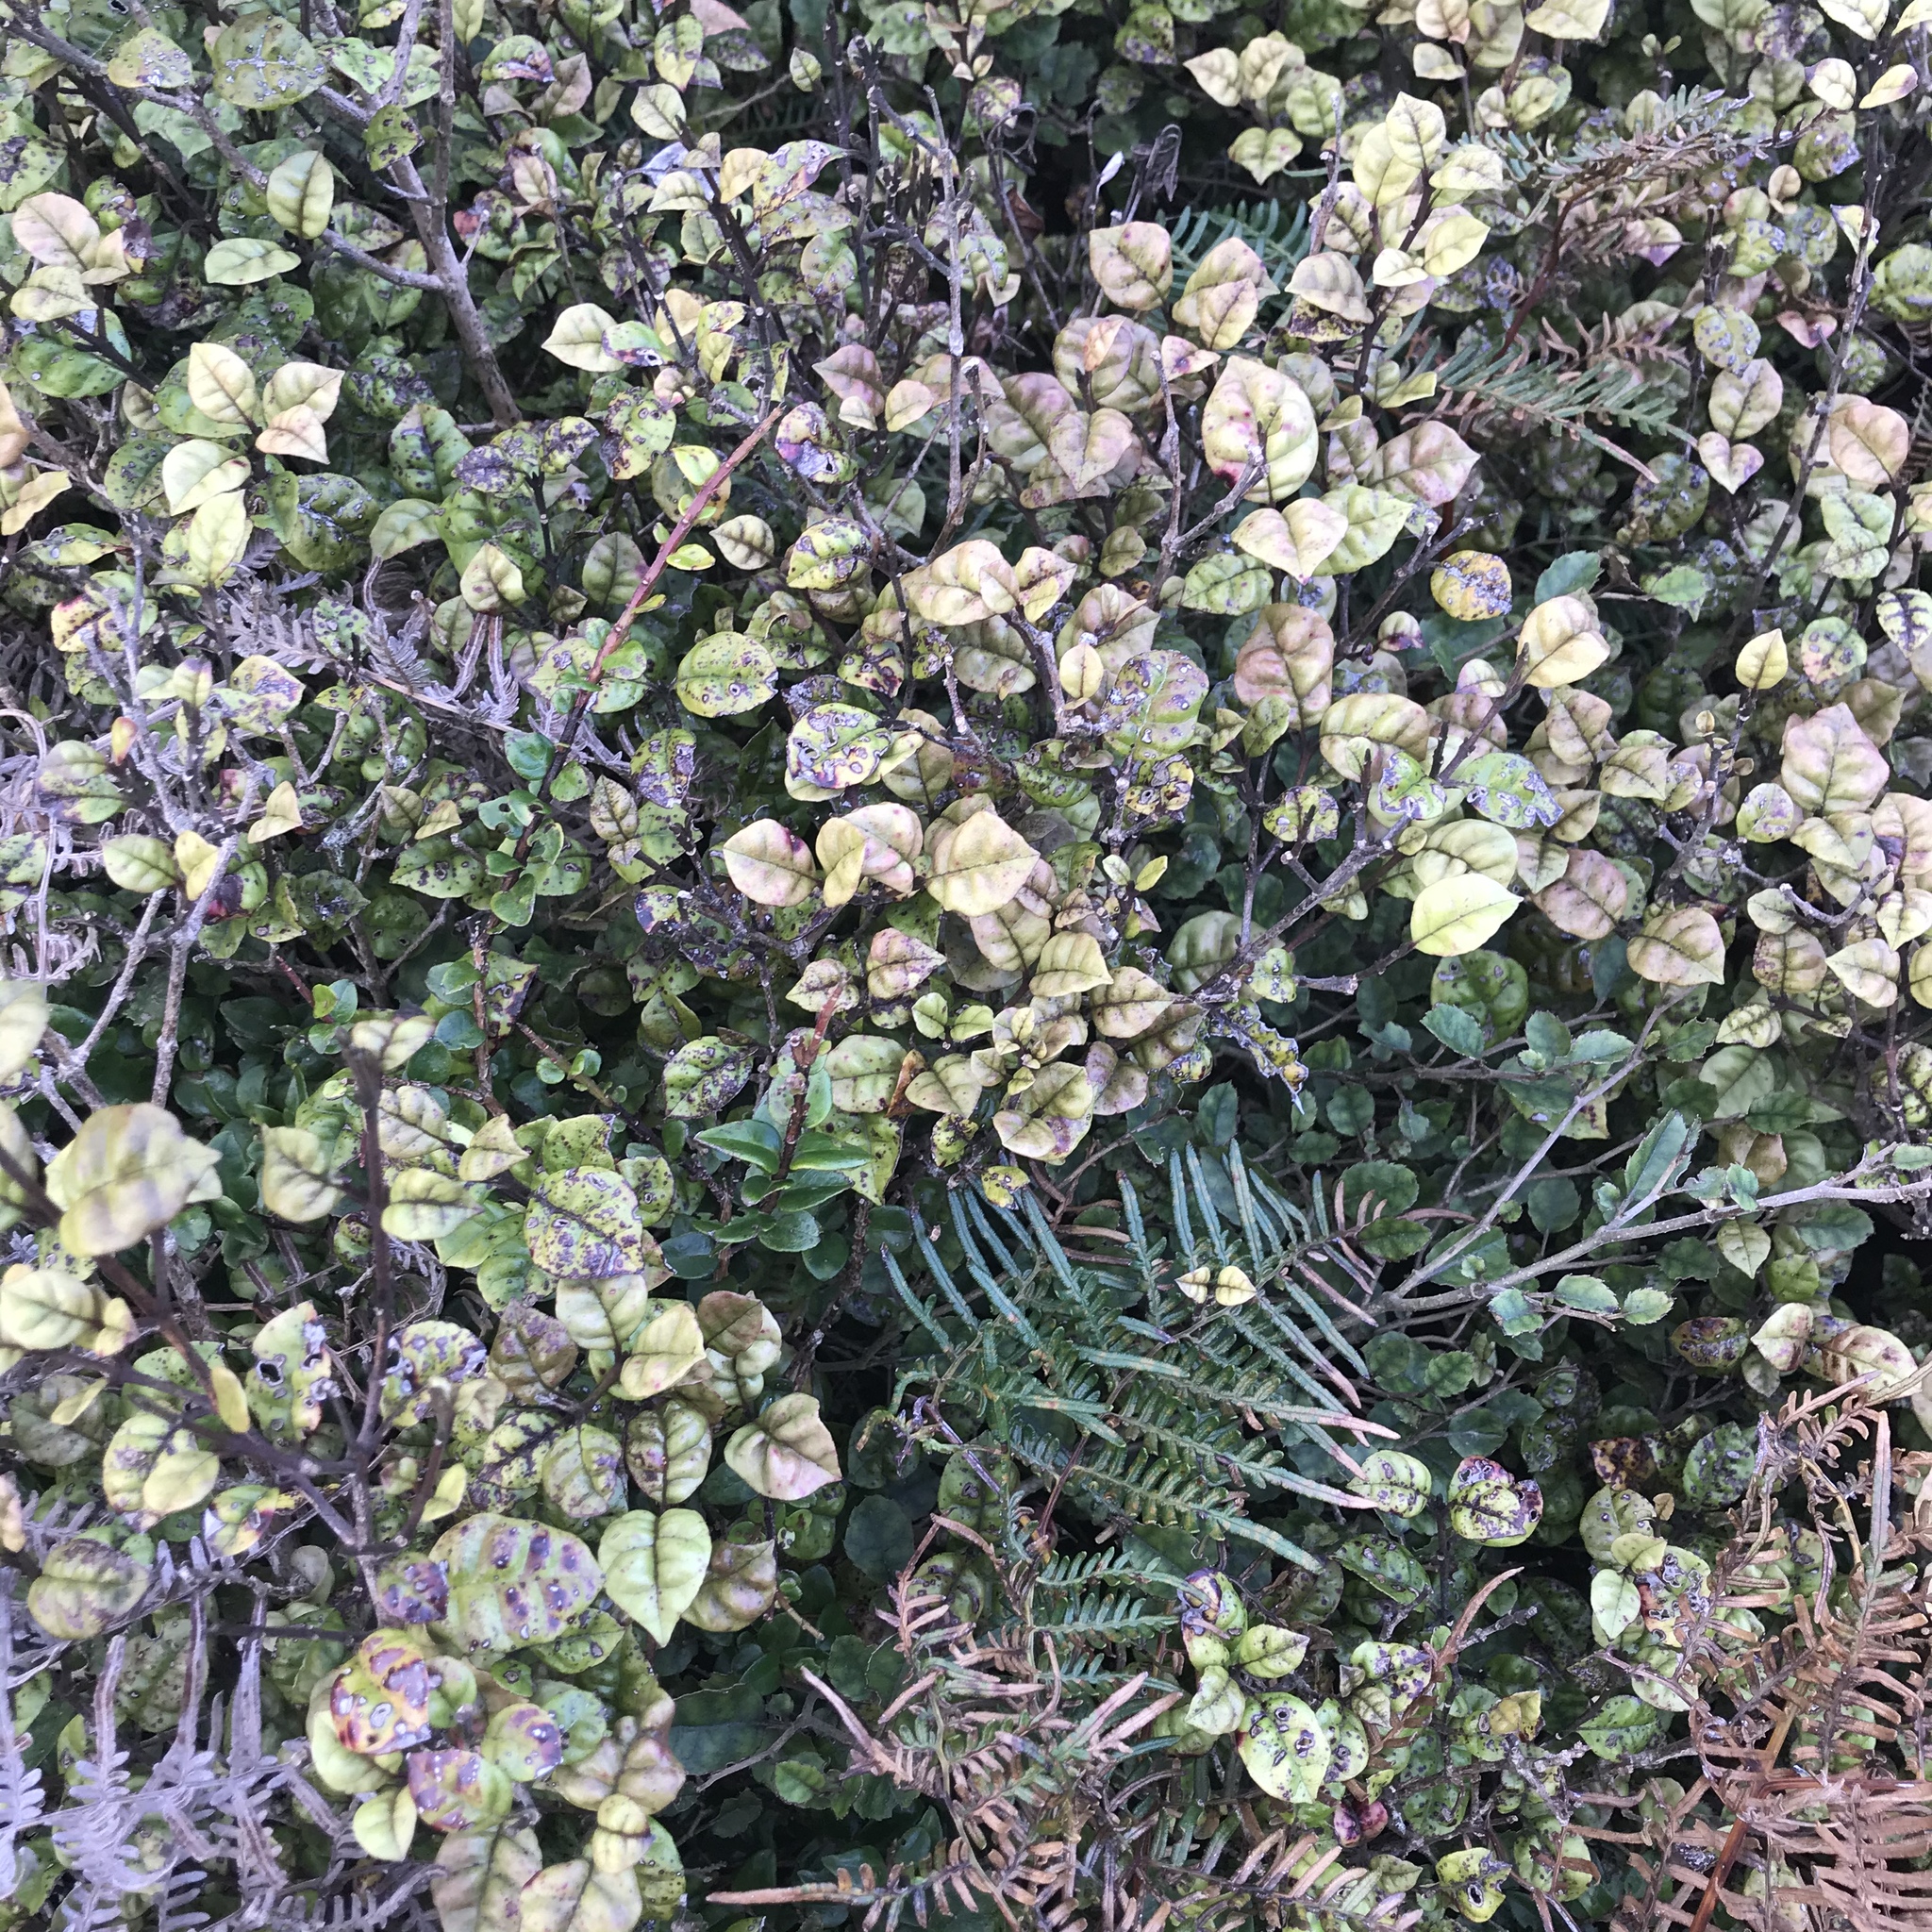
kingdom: Plantae
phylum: Tracheophyta
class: Magnoliopsida
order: Myrtales
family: Myrtaceae
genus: Lophomyrtus
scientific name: Lophomyrtus bullata
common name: Rama rama
